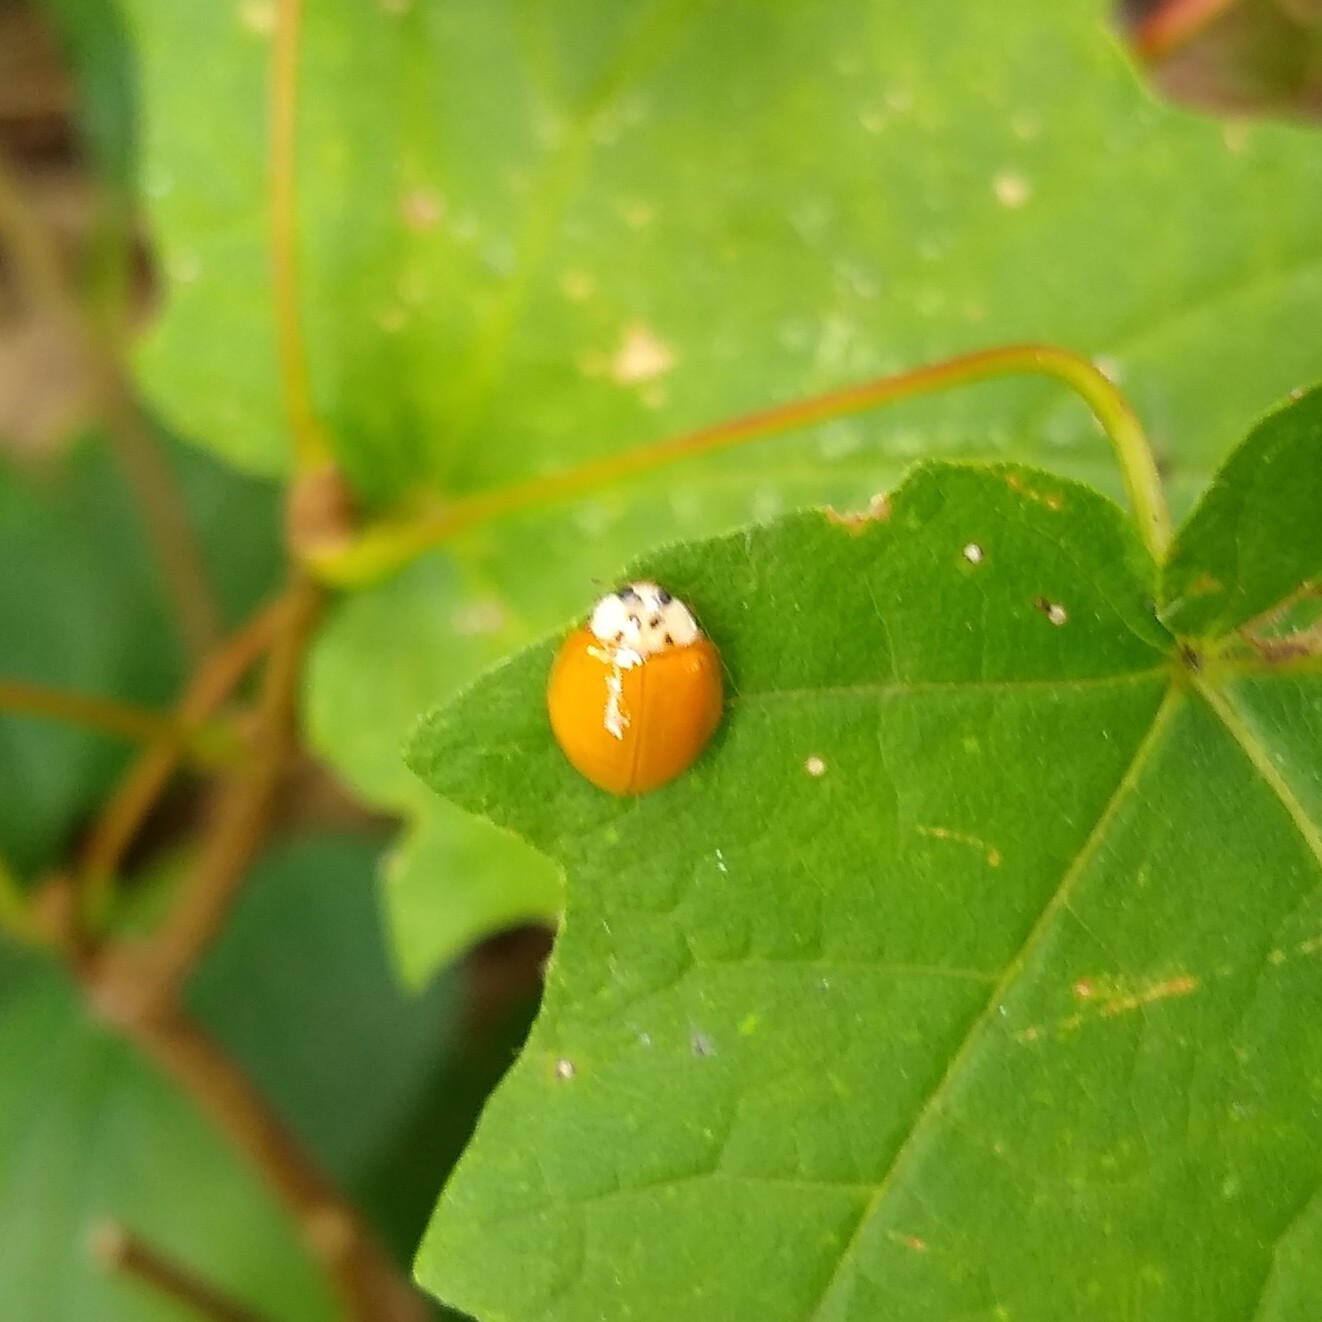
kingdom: Animalia
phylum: Arthropoda
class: Insecta
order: Coleoptera
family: Coccinellidae
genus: Harmonia
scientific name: Harmonia axyridis
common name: Harlequin ladybird
